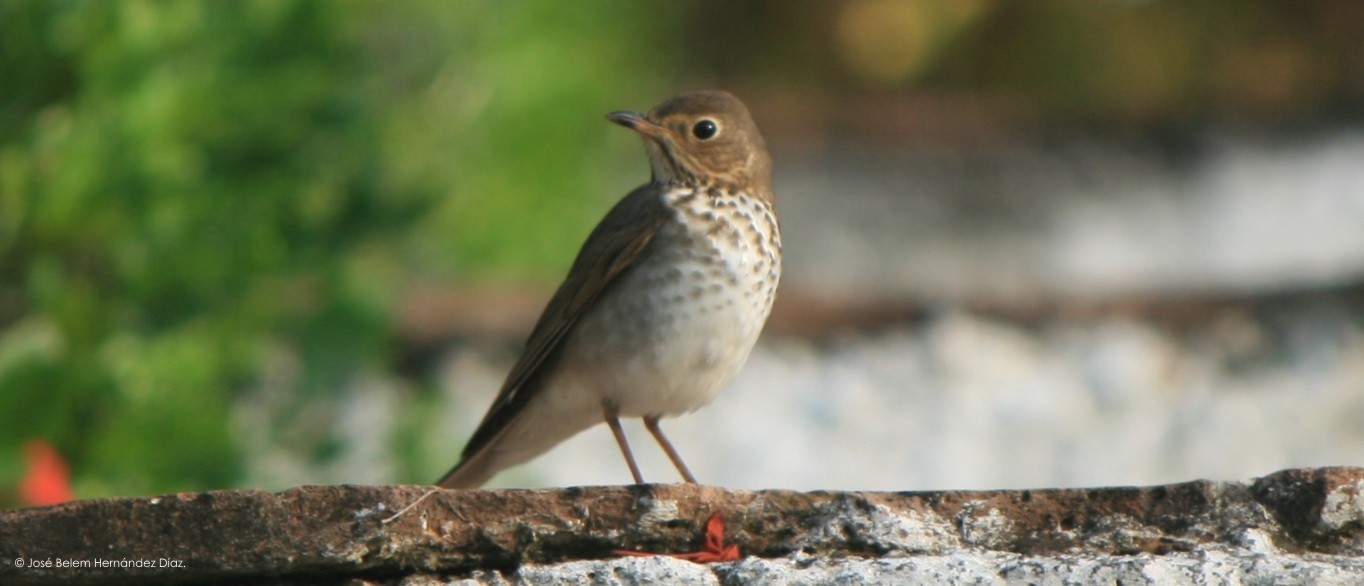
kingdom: Animalia
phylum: Chordata
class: Aves
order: Passeriformes
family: Turdidae
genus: Catharus
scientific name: Catharus ustulatus
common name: Swainson's thrush
